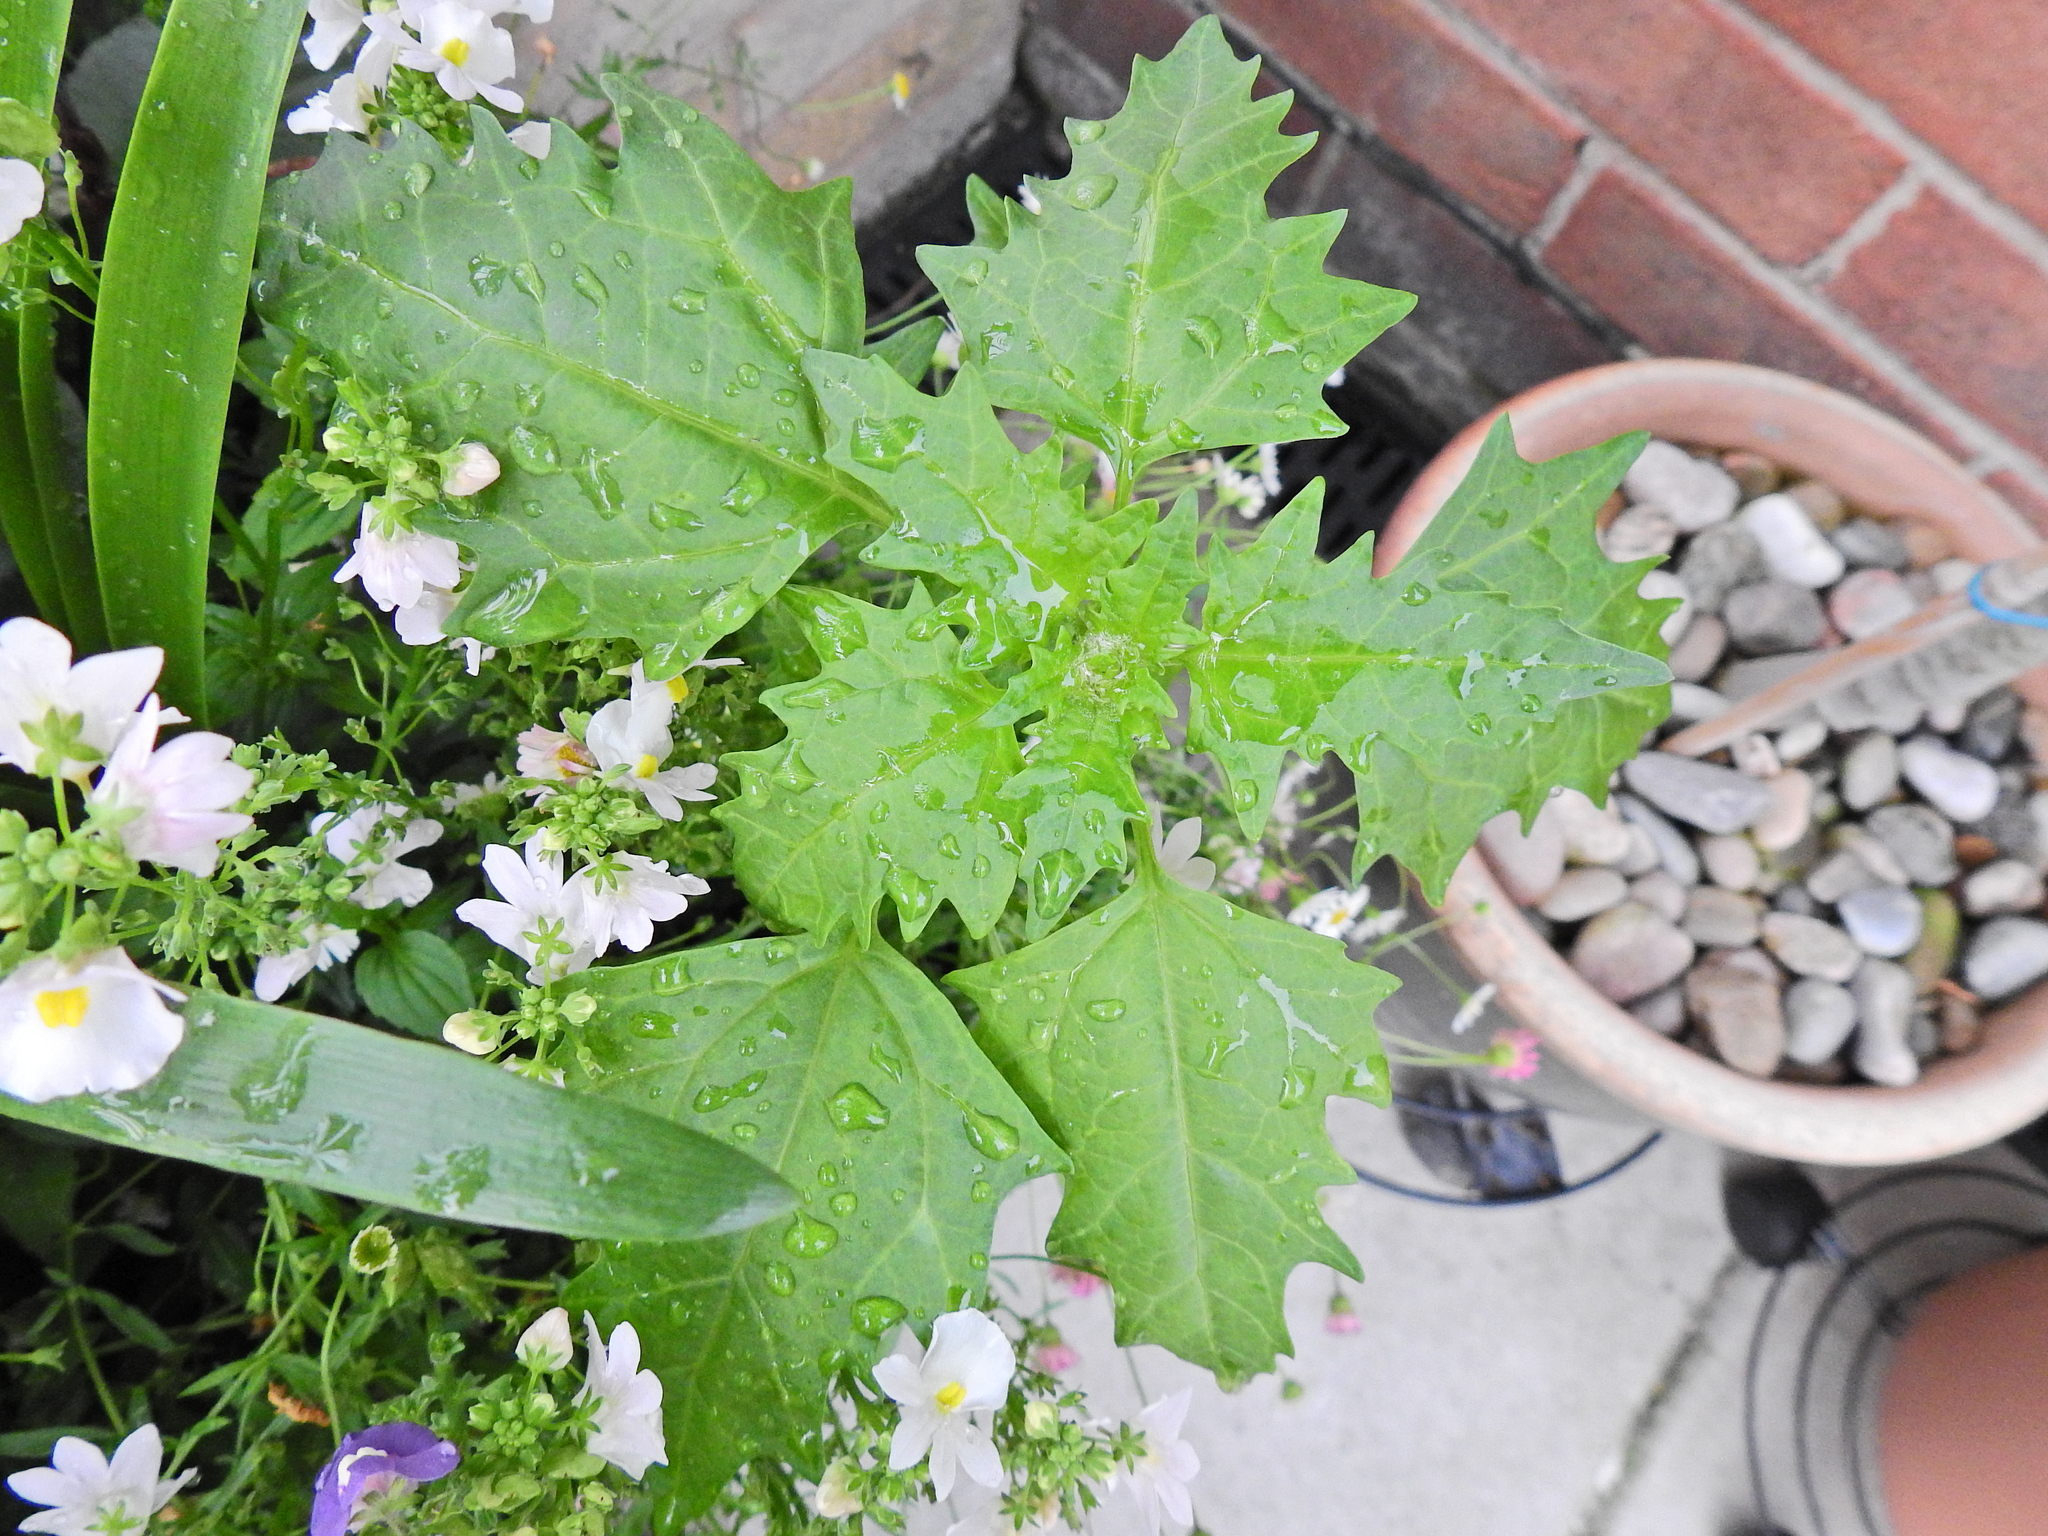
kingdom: Plantae
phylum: Tracheophyta
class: Magnoliopsida
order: Caryophyllales
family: Amaranthaceae
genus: Oxybasis
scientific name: Oxybasis rubra
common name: Red goosefoot
